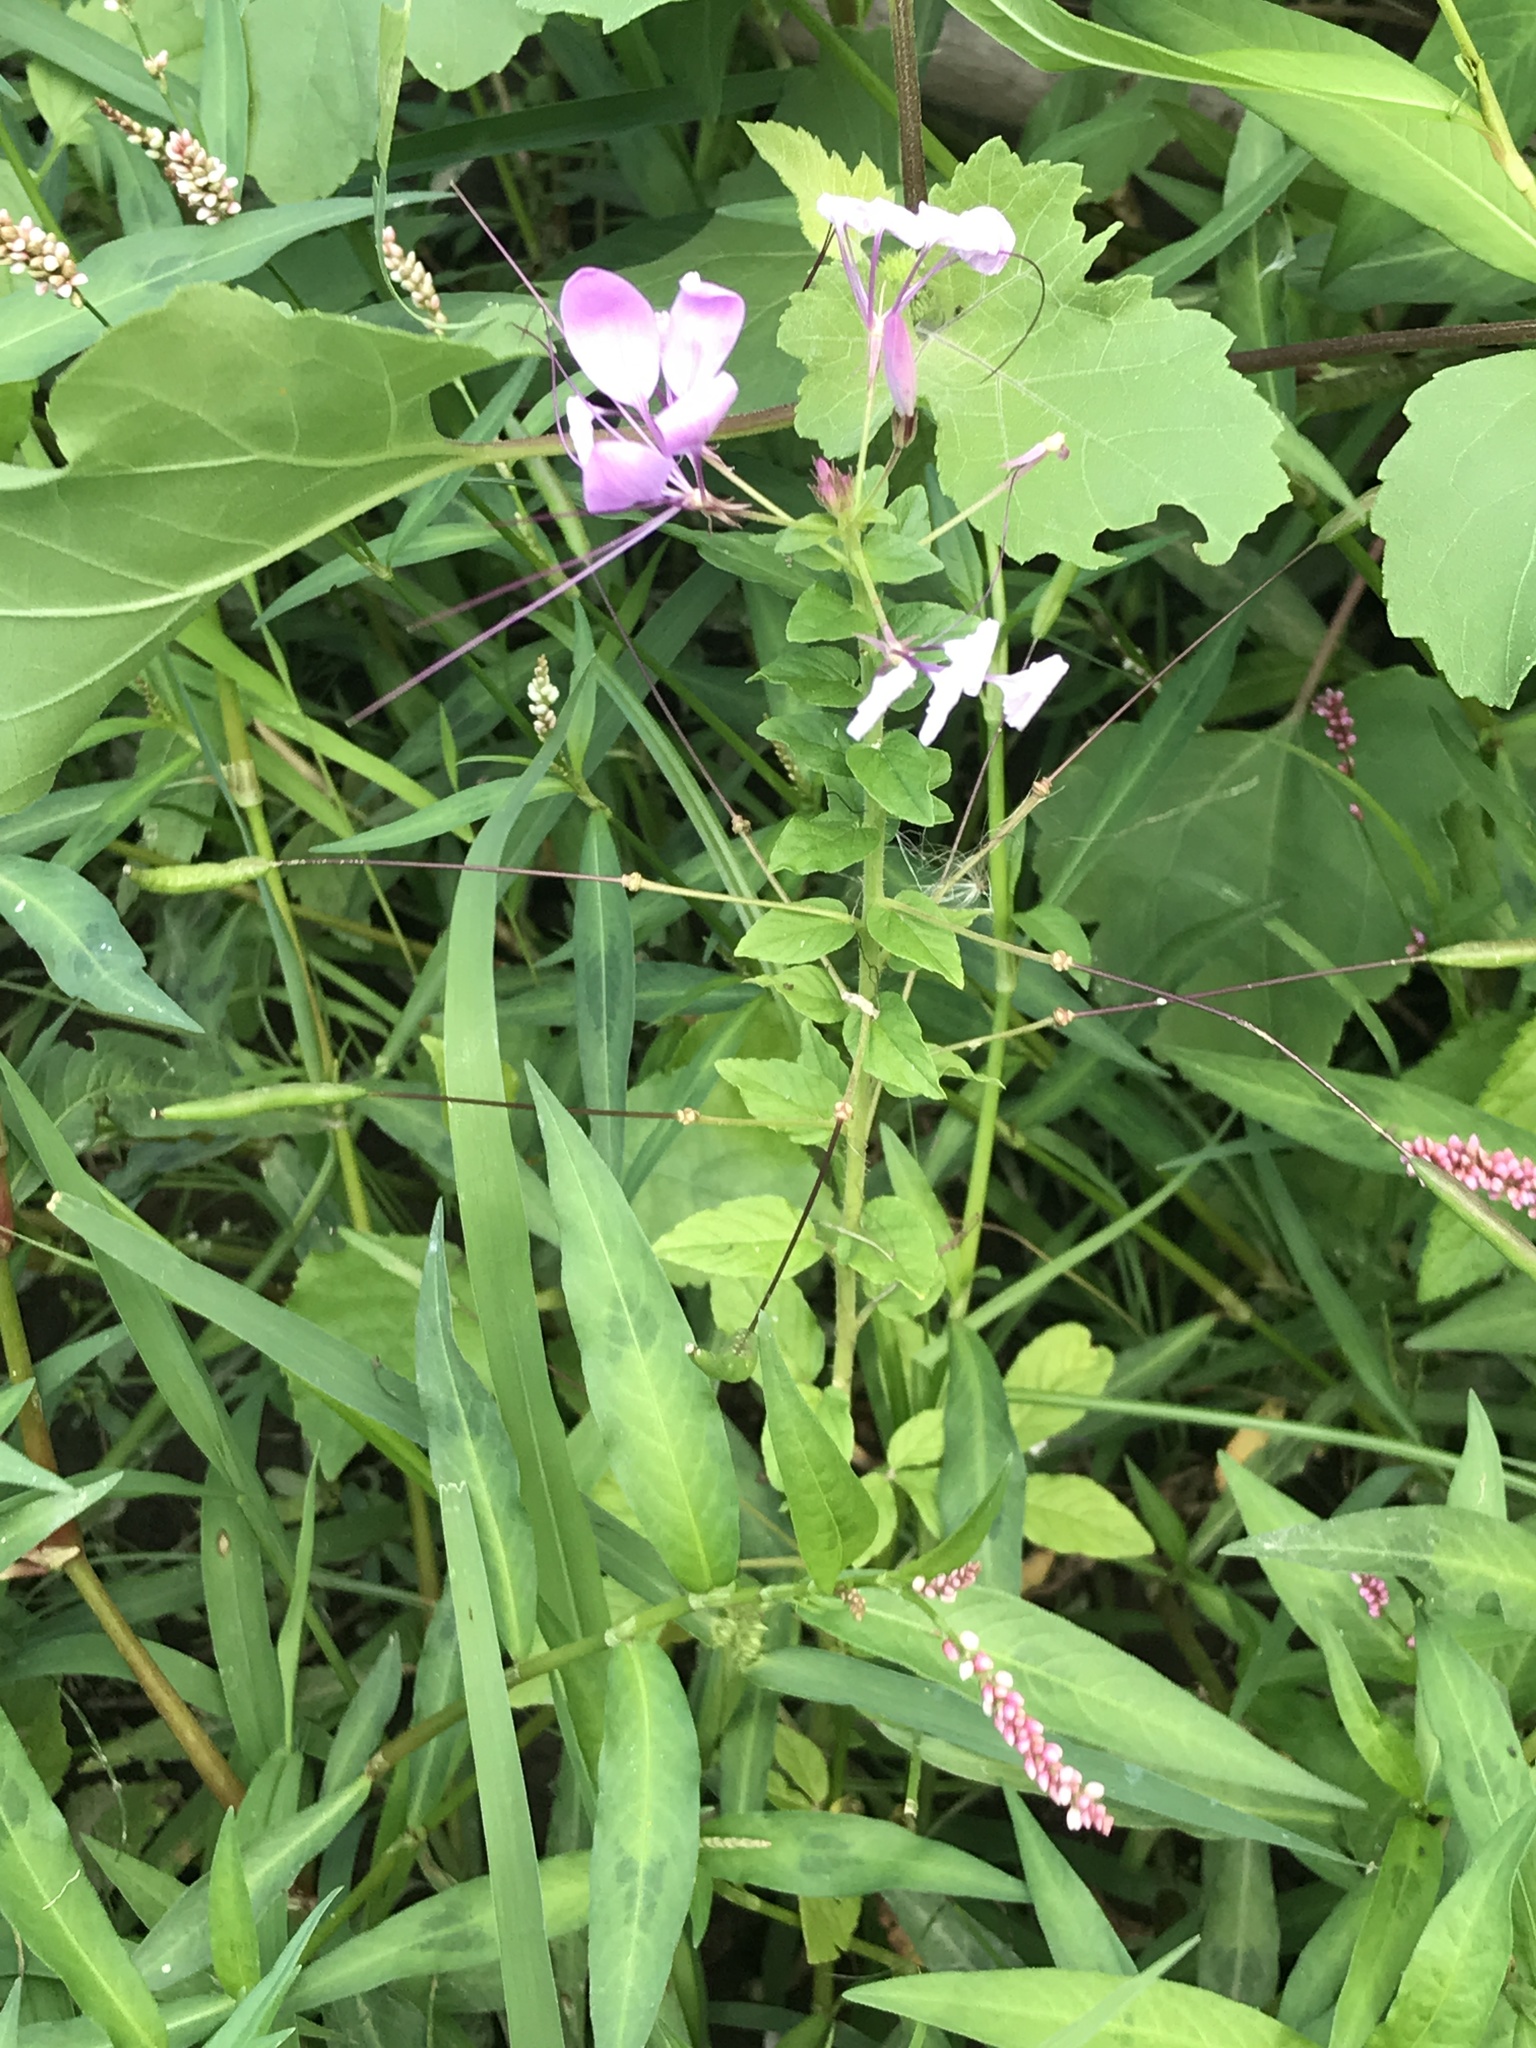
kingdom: Plantae
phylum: Tracheophyta
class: Magnoliopsida
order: Brassicales
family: Cleomaceae
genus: Tarenaya
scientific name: Tarenaya houtteana
